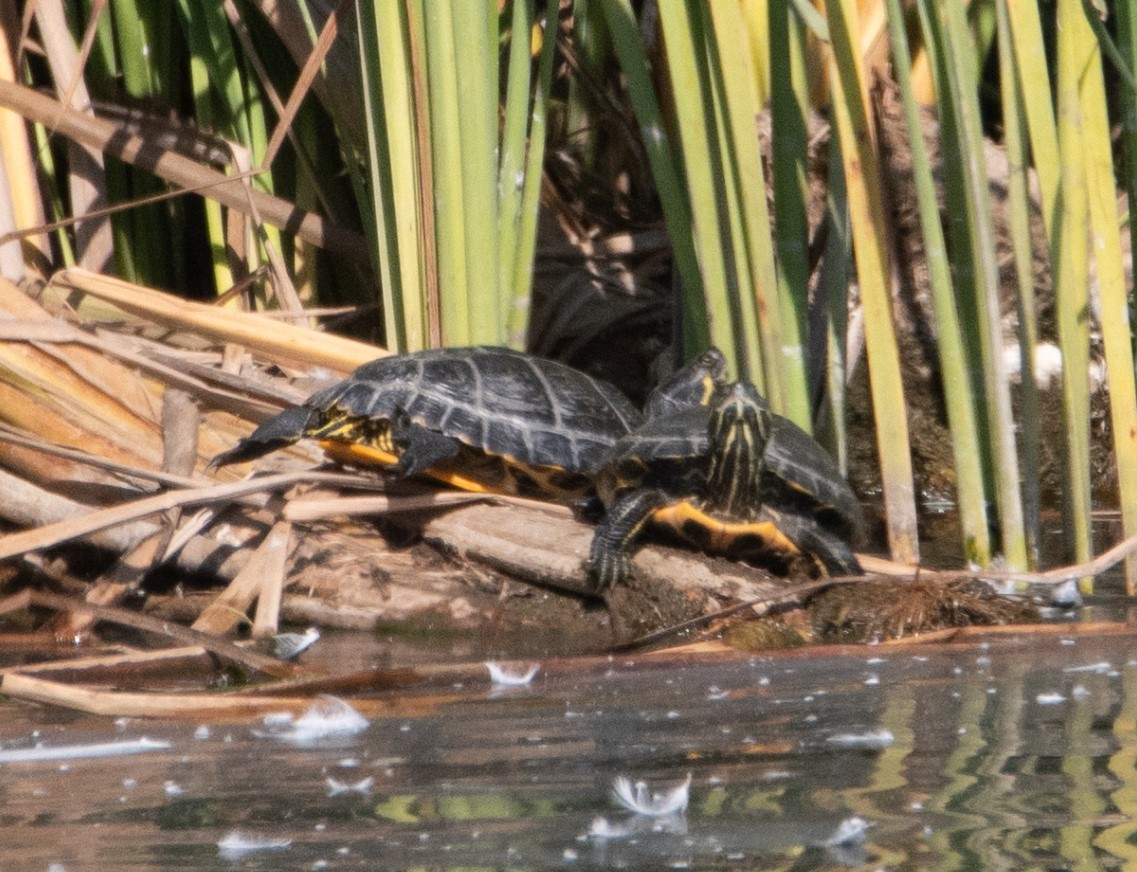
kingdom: Animalia
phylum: Chordata
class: Testudines
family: Emydidae
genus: Trachemys
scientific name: Trachemys scripta
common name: Slider
